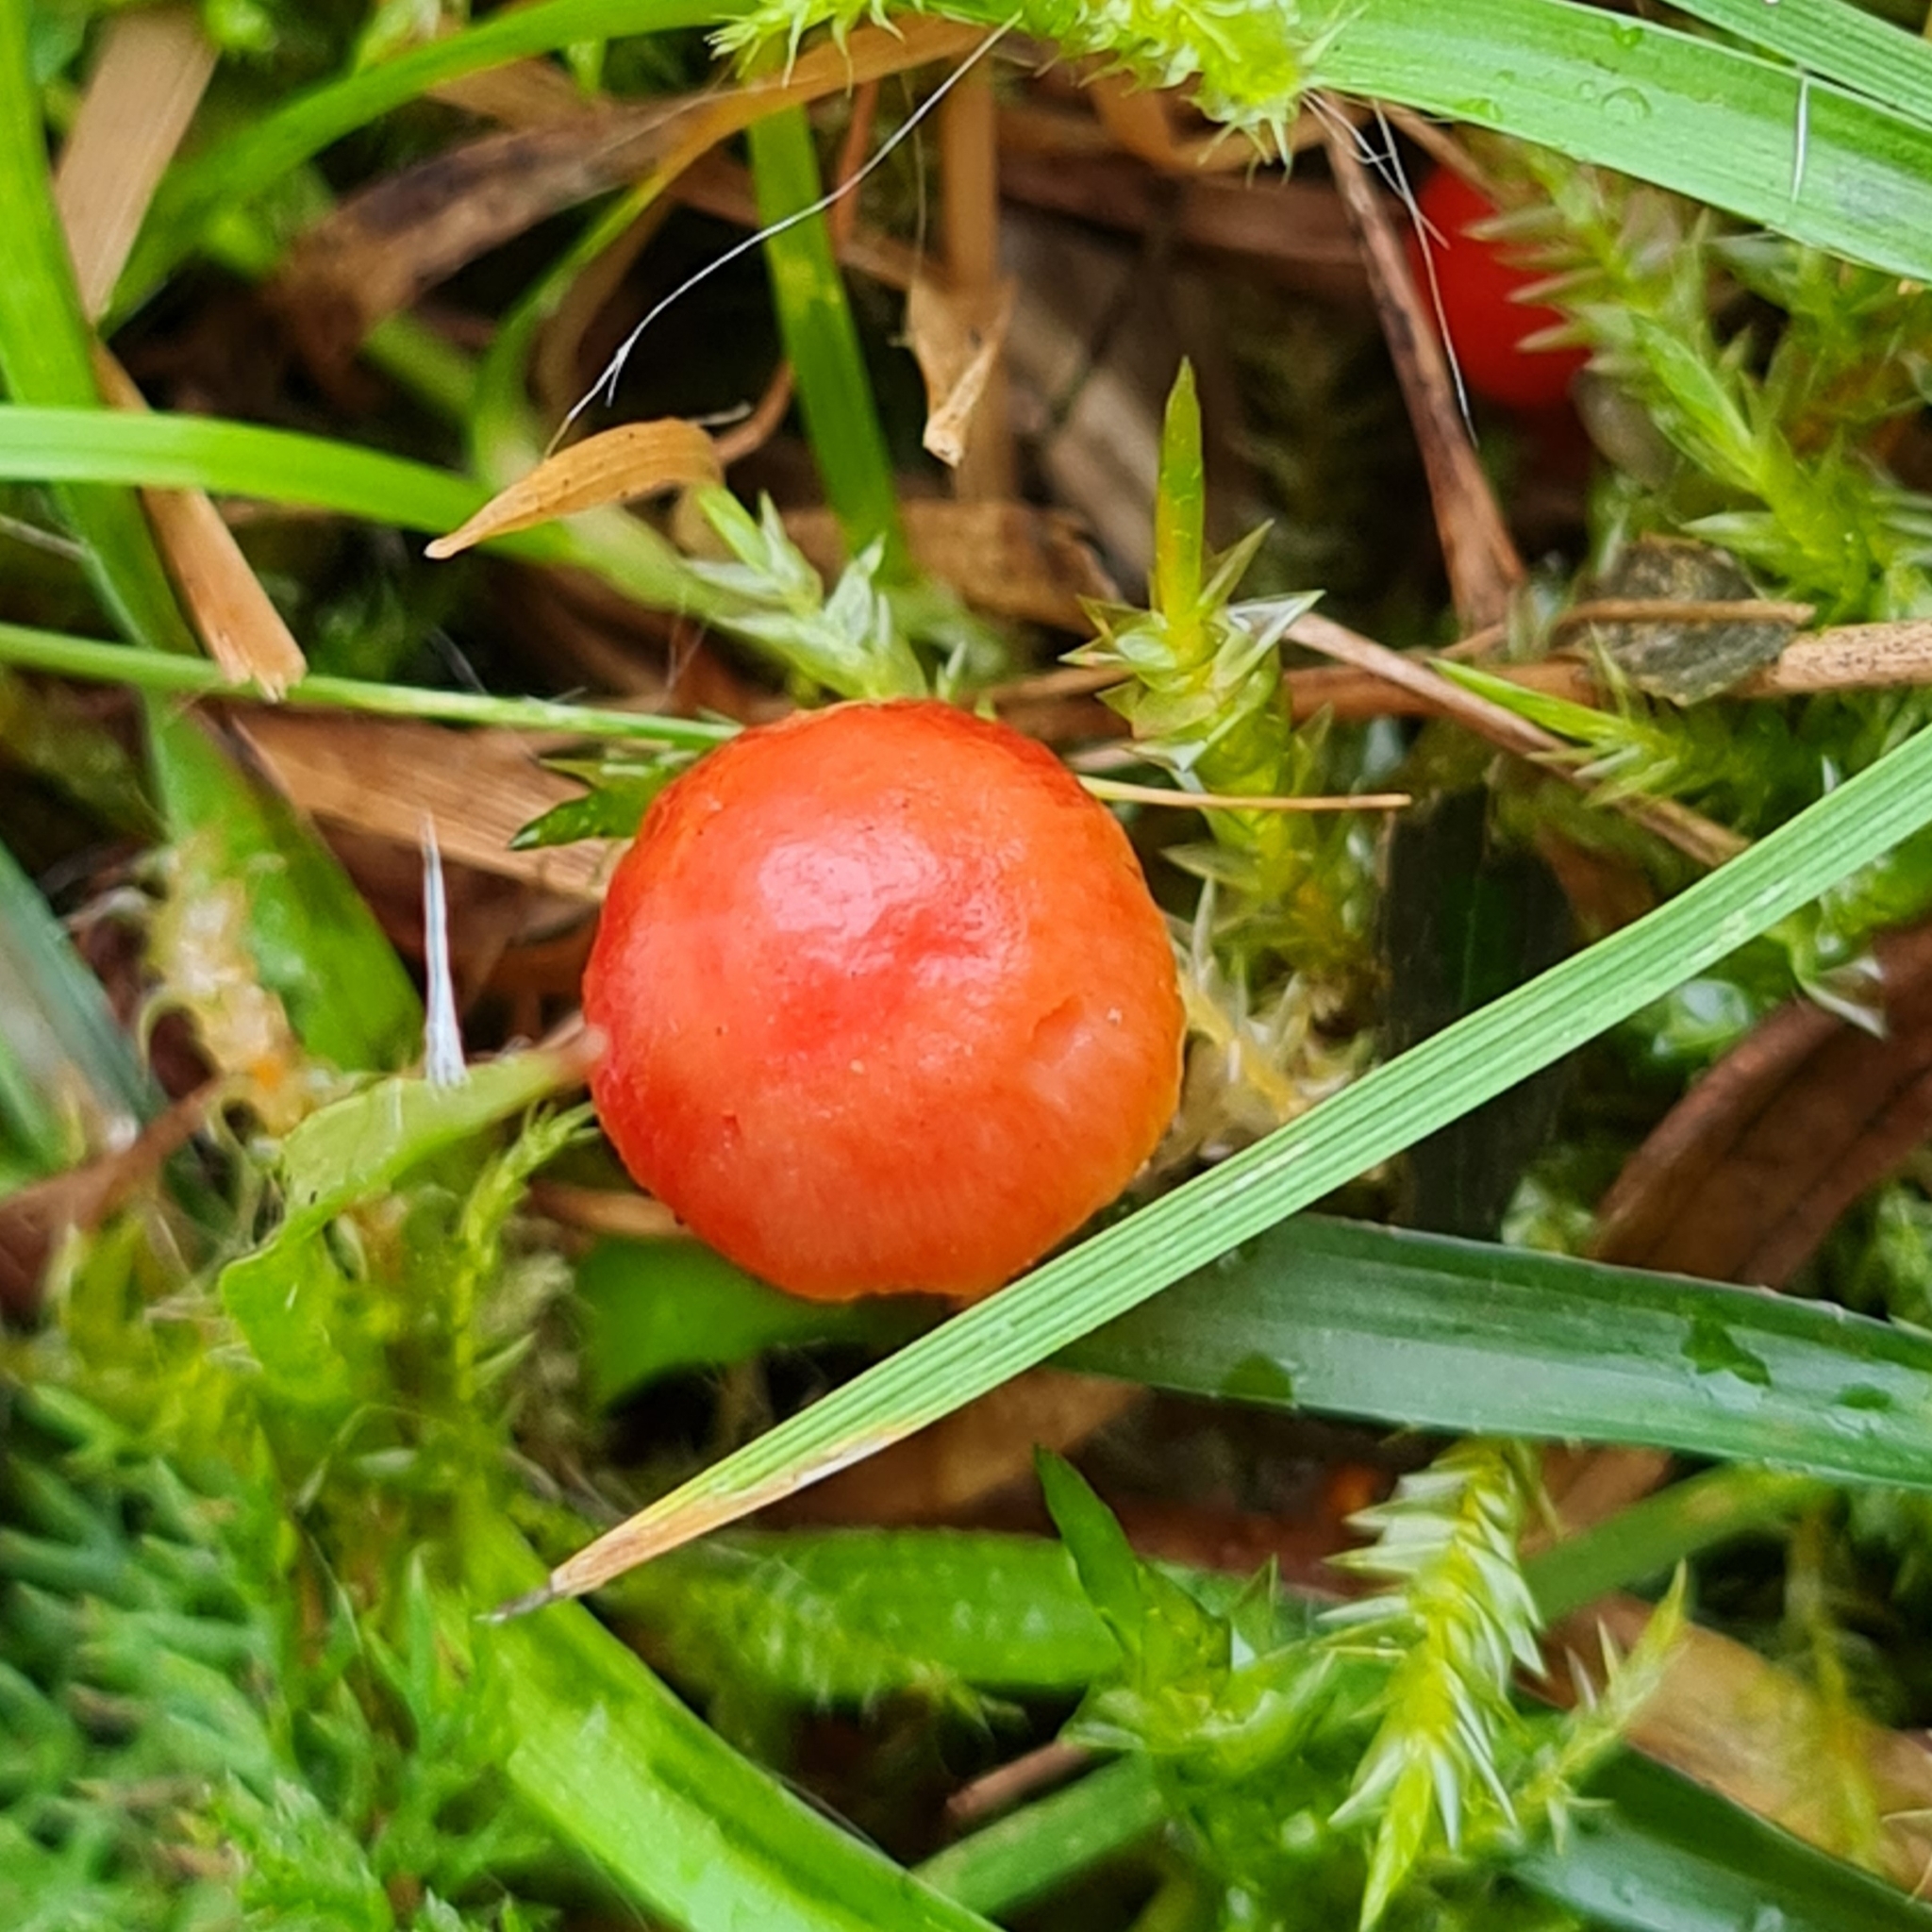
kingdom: Fungi
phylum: Basidiomycota
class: Agaricomycetes
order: Agaricales
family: Hygrophoraceae
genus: Hygrocybe
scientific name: Hygrocybe coccinea
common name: Scarlet hood
